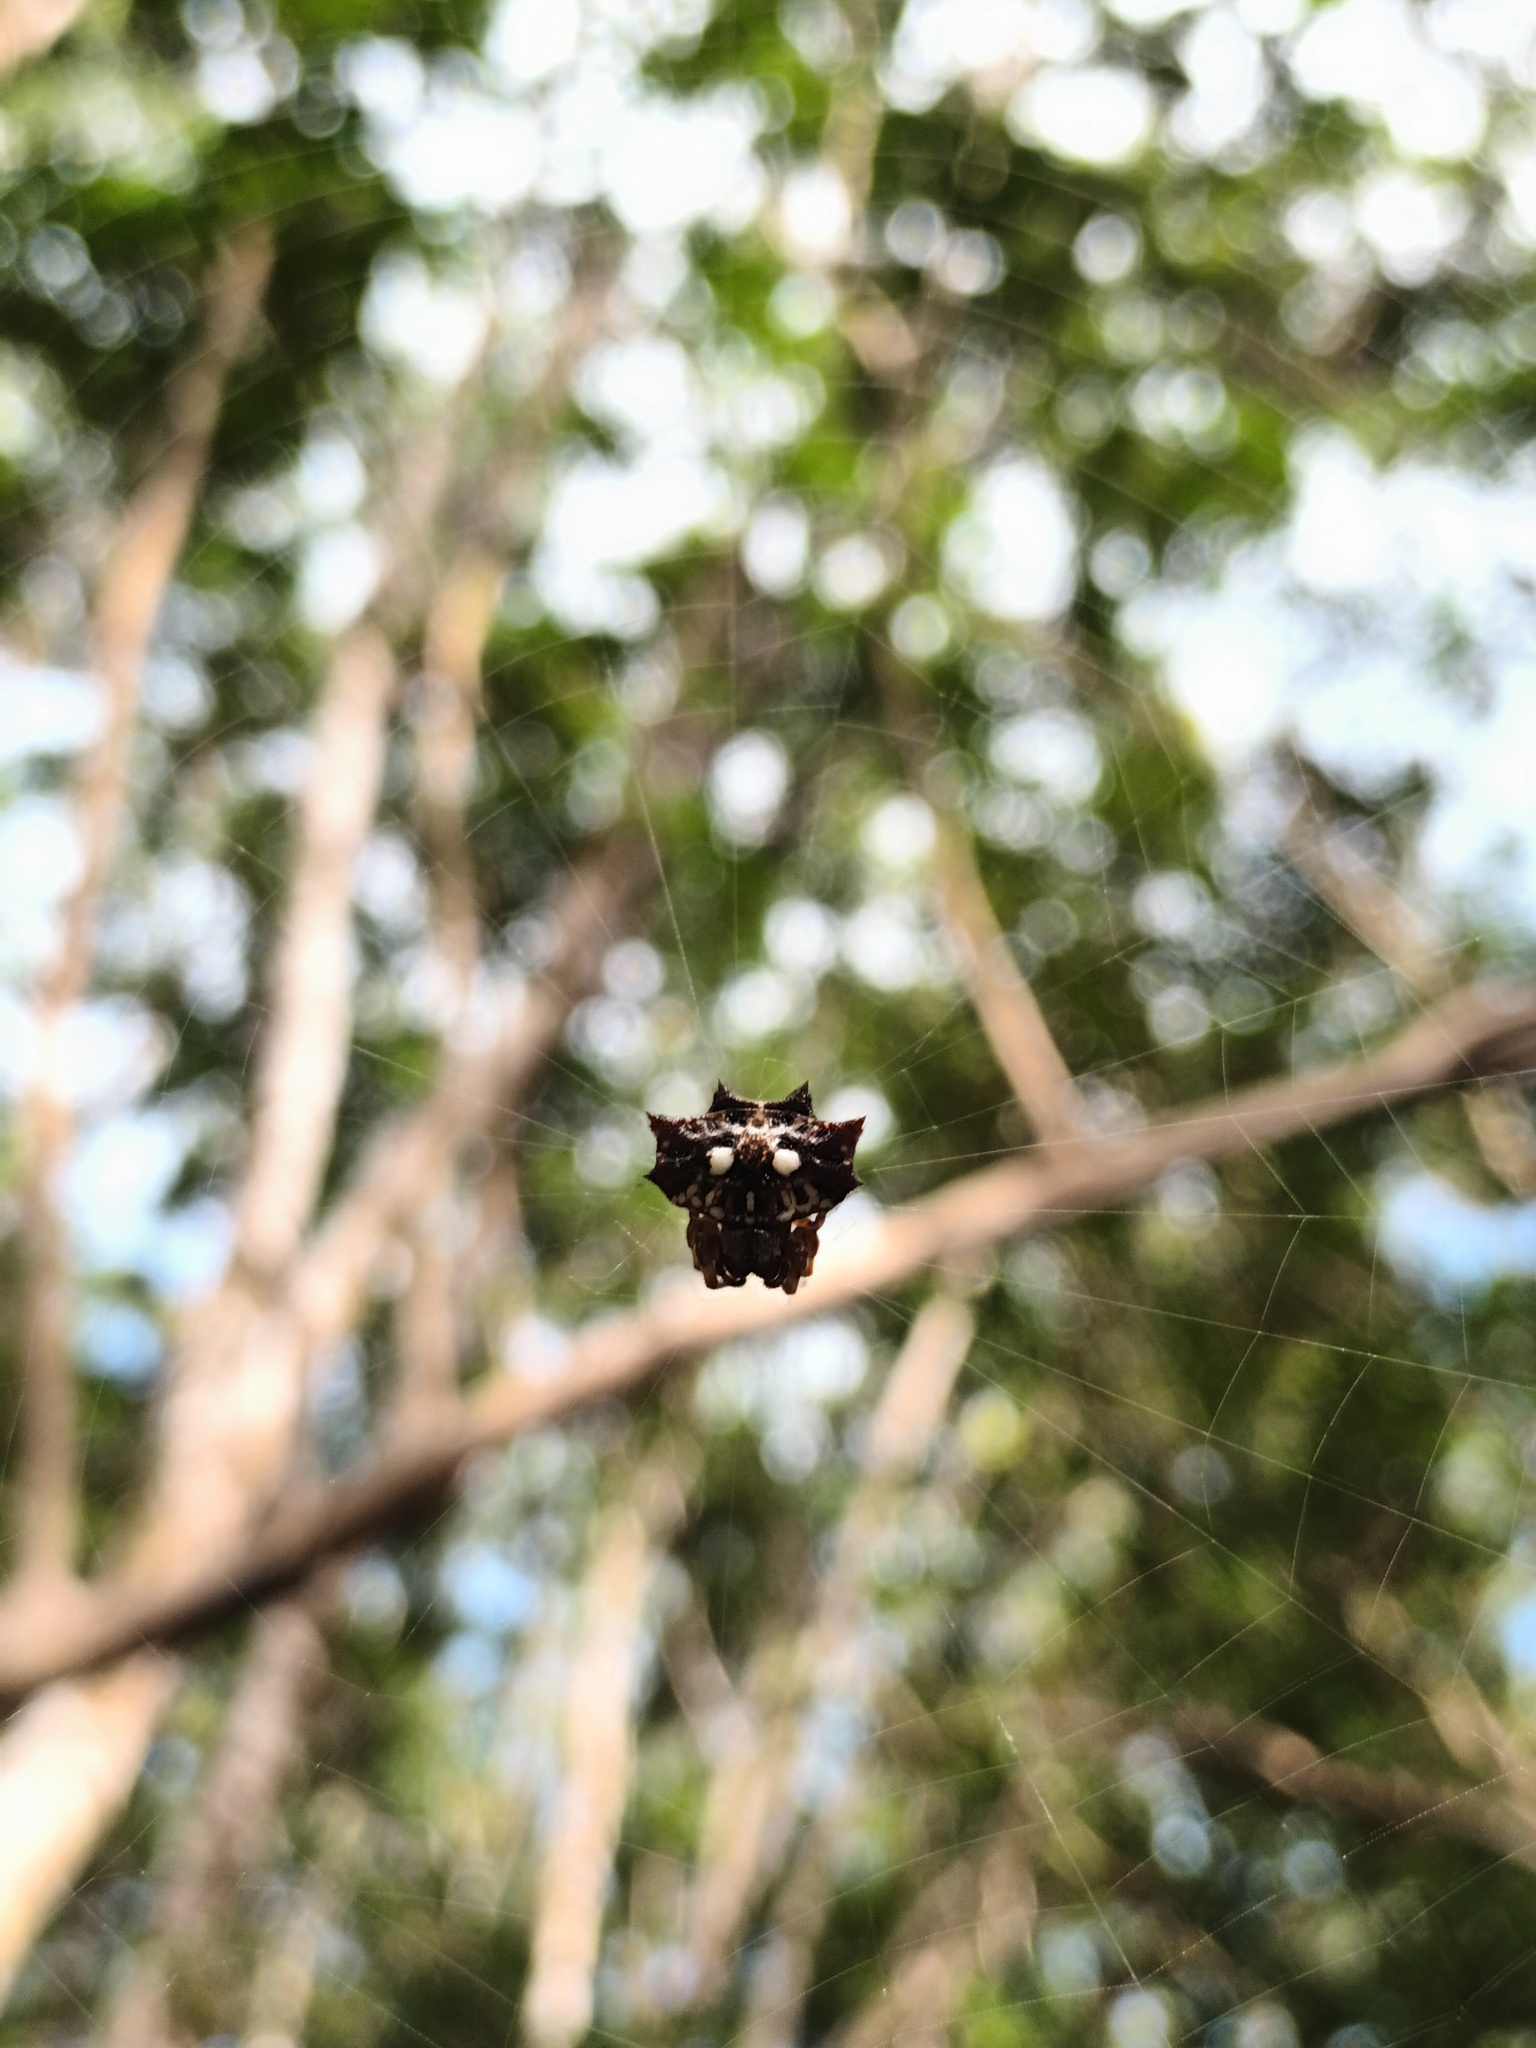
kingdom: Animalia
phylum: Arthropoda
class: Arachnida
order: Araneae
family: Araneidae
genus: Thelacantha
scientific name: Thelacantha brevispina
